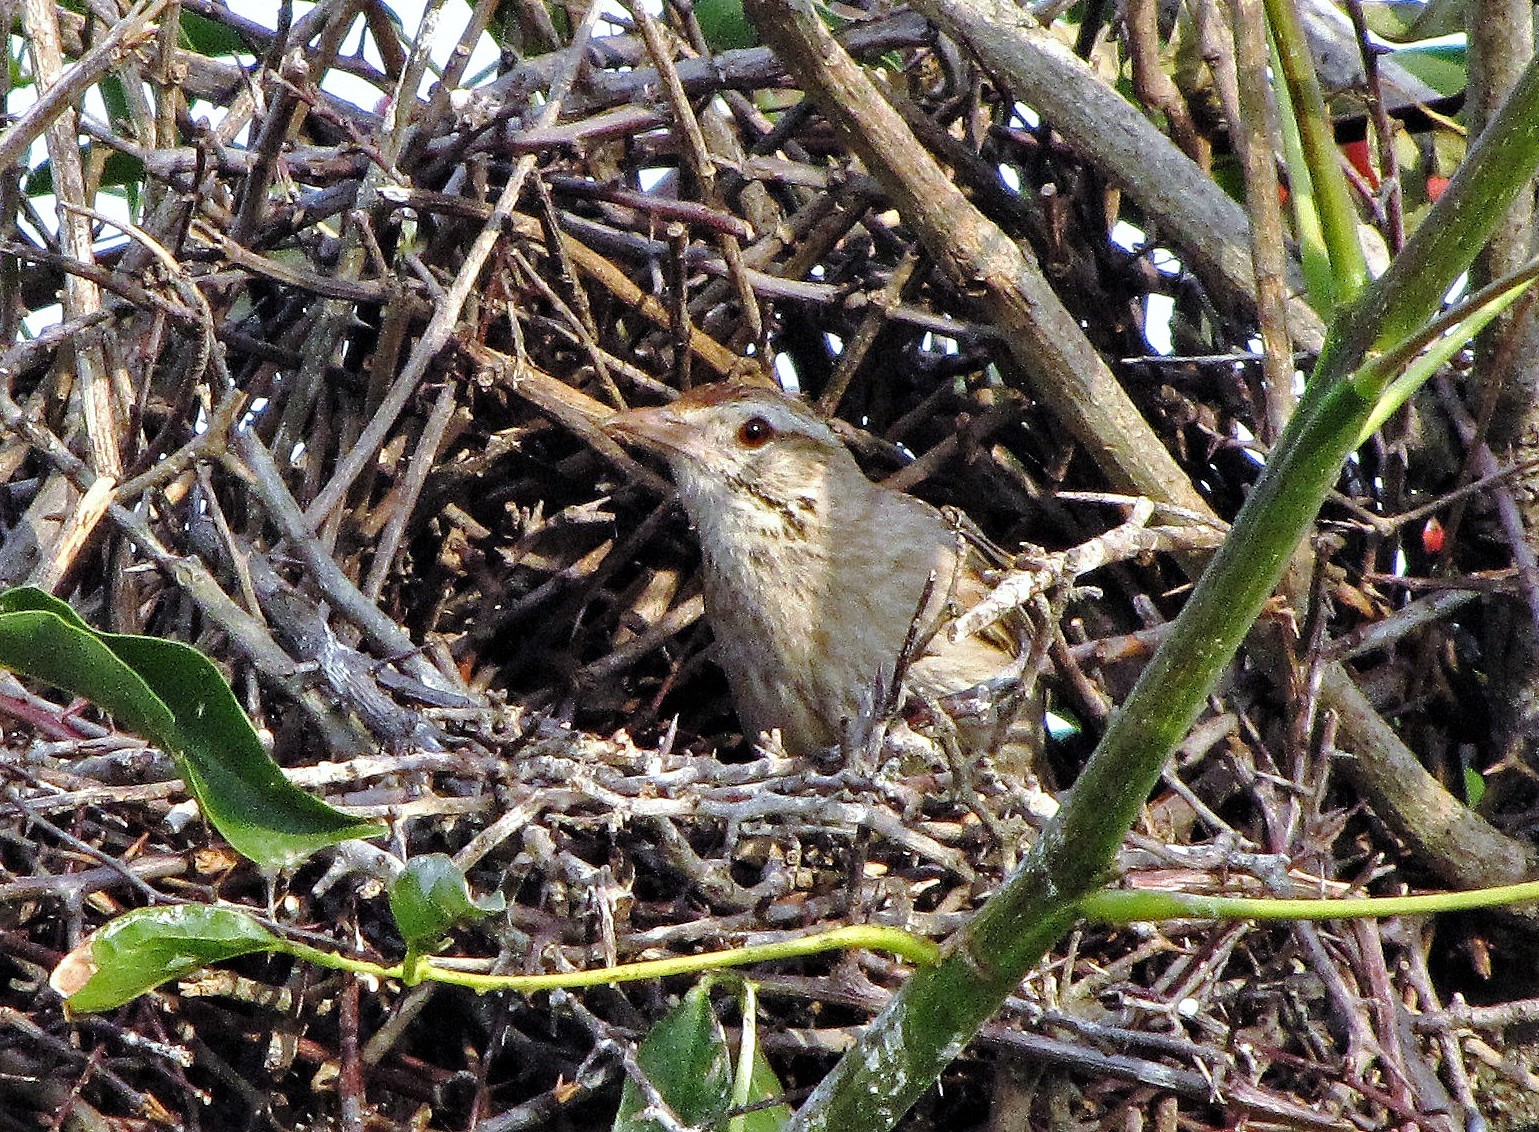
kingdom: Animalia
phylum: Chordata
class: Aves
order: Passeriformes
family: Furnariidae
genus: Anumbius
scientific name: Anumbius annumbi
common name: Firewood-gatherer
